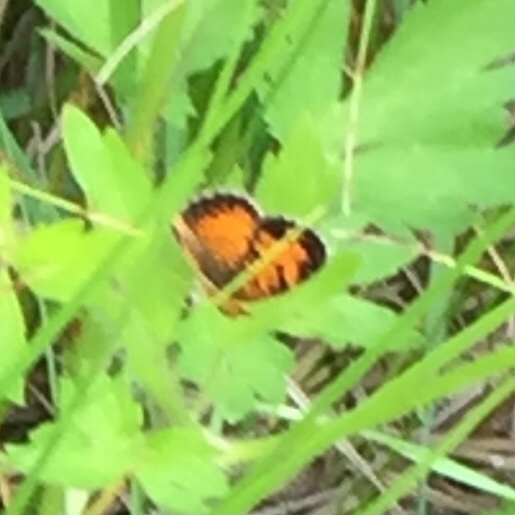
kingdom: Animalia
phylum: Arthropoda
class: Insecta
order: Lepidoptera
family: Nymphalidae
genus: Phyciodes
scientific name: Phyciodes tharos
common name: Pearl crescent
